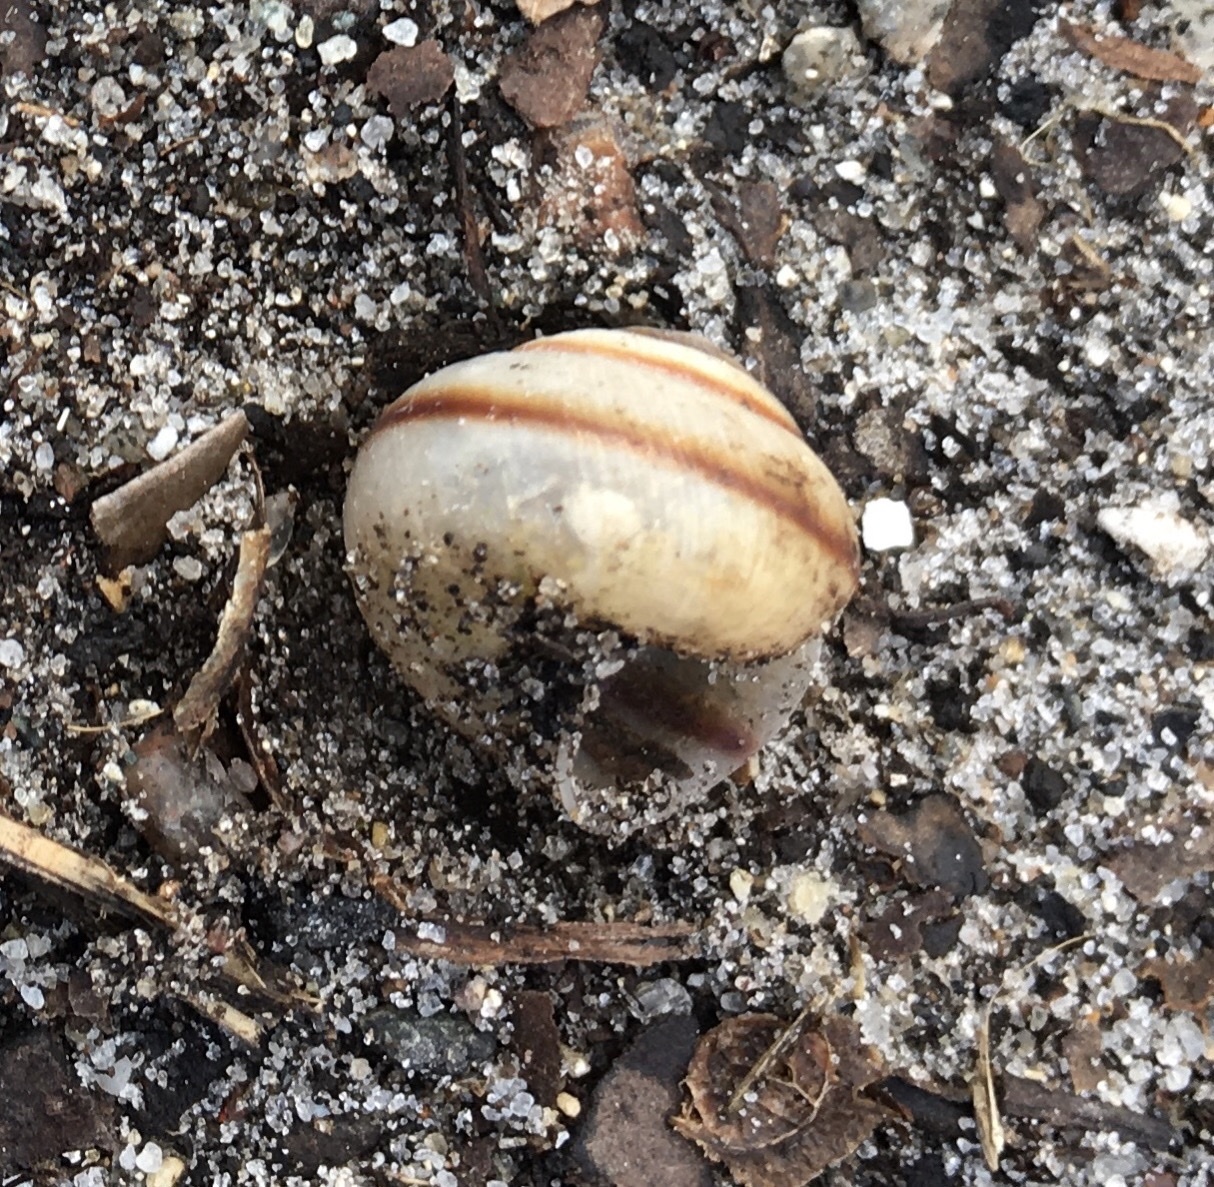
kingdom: Animalia
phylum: Mollusca
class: Gastropoda
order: Stylommatophora
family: Camaenidae
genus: Bradybaena
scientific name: Bradybaena similaris
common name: Asian trampsnail
